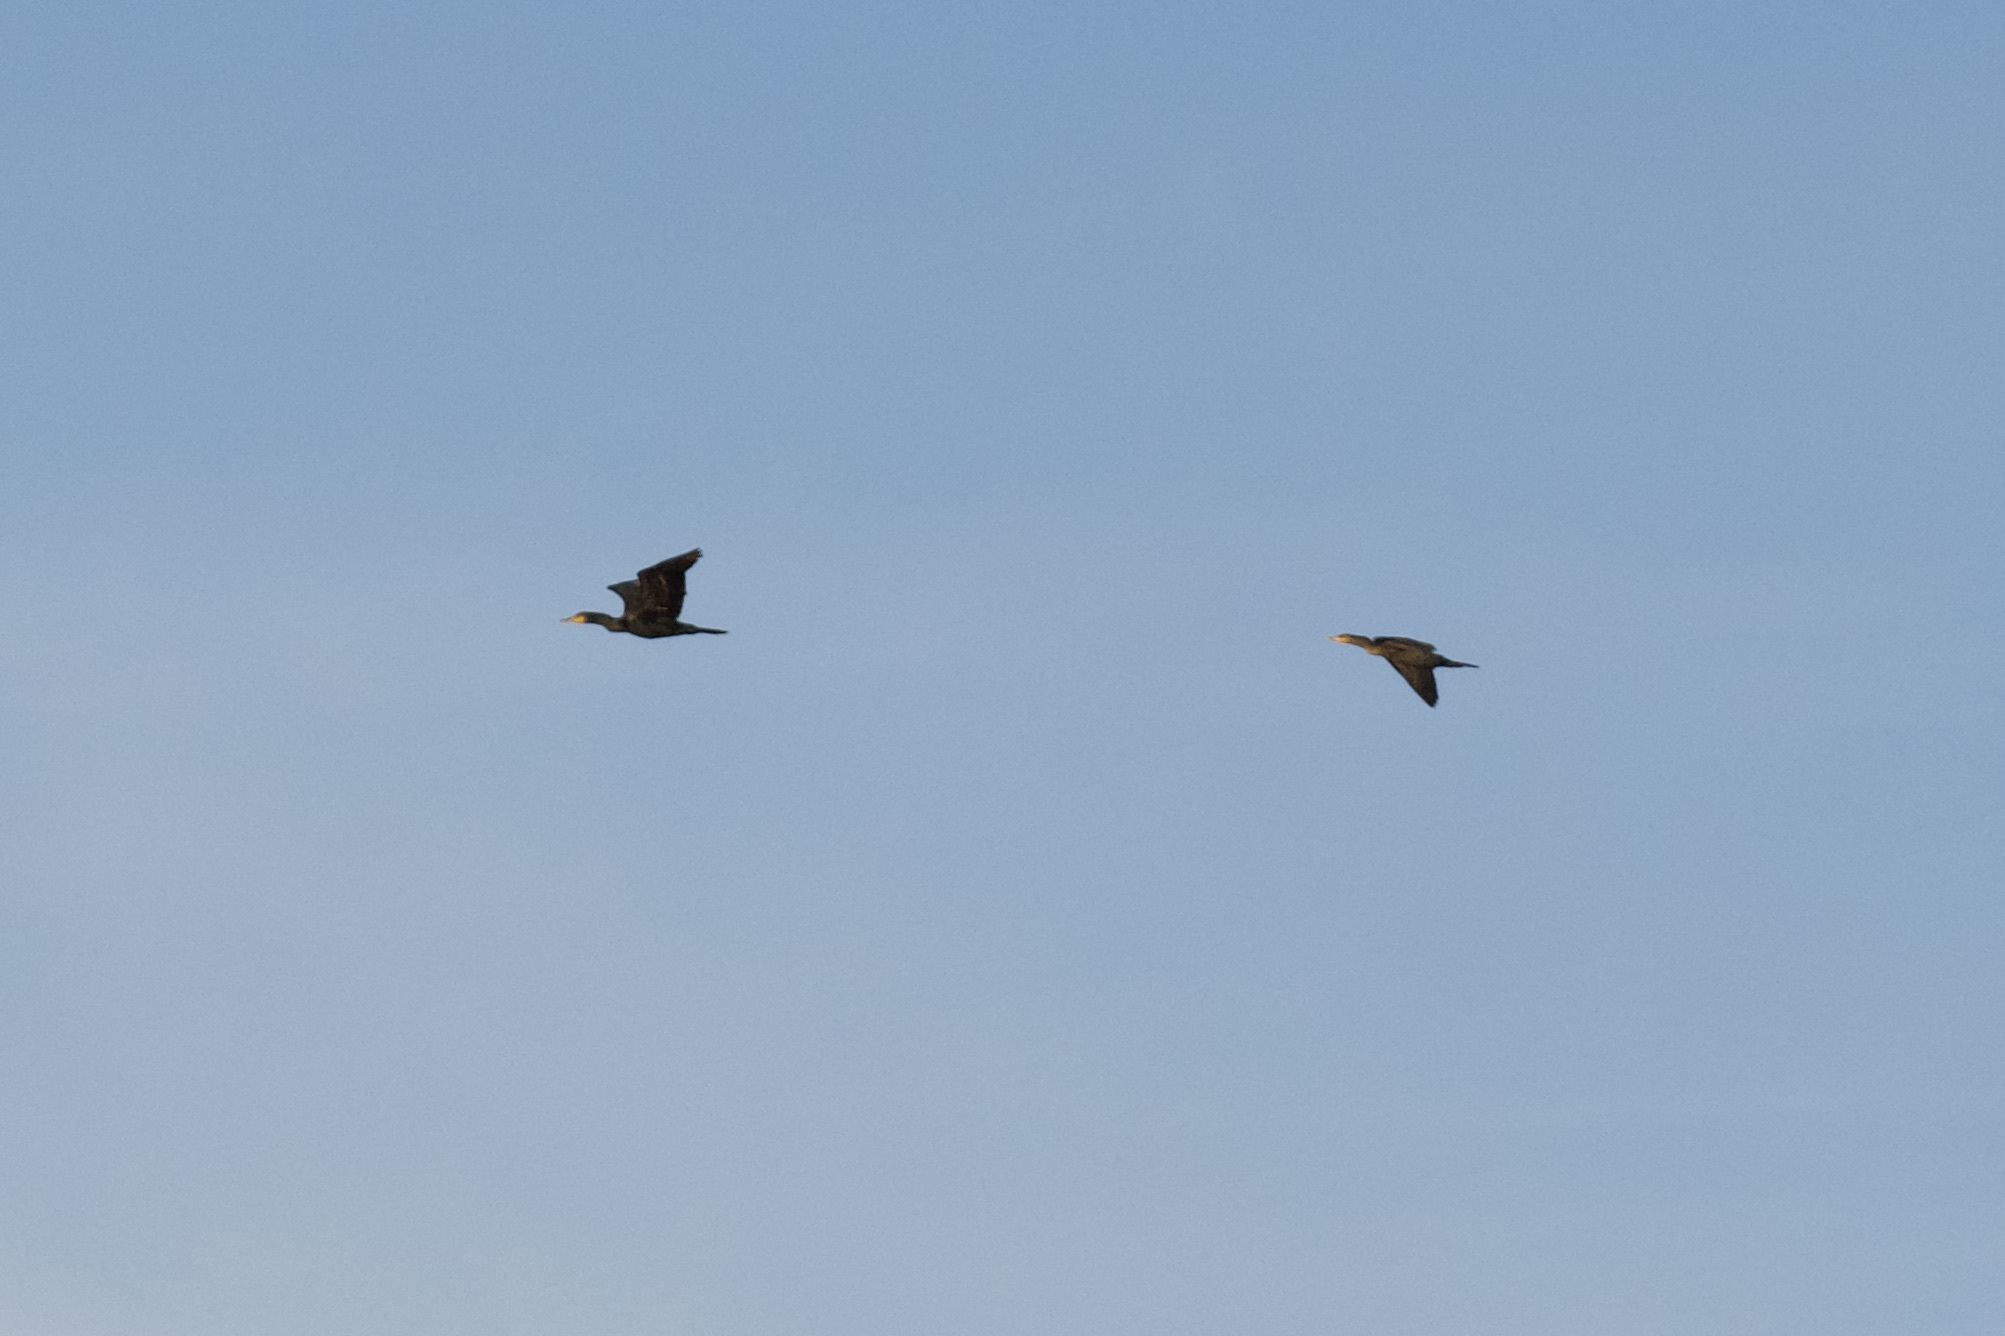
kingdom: Animalia
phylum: Chordata
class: Aves
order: Suliformes
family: Phalacrocoracidae
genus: Phalacrocorax
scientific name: Phalacrocorax auritus
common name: Double-crested cormorant
